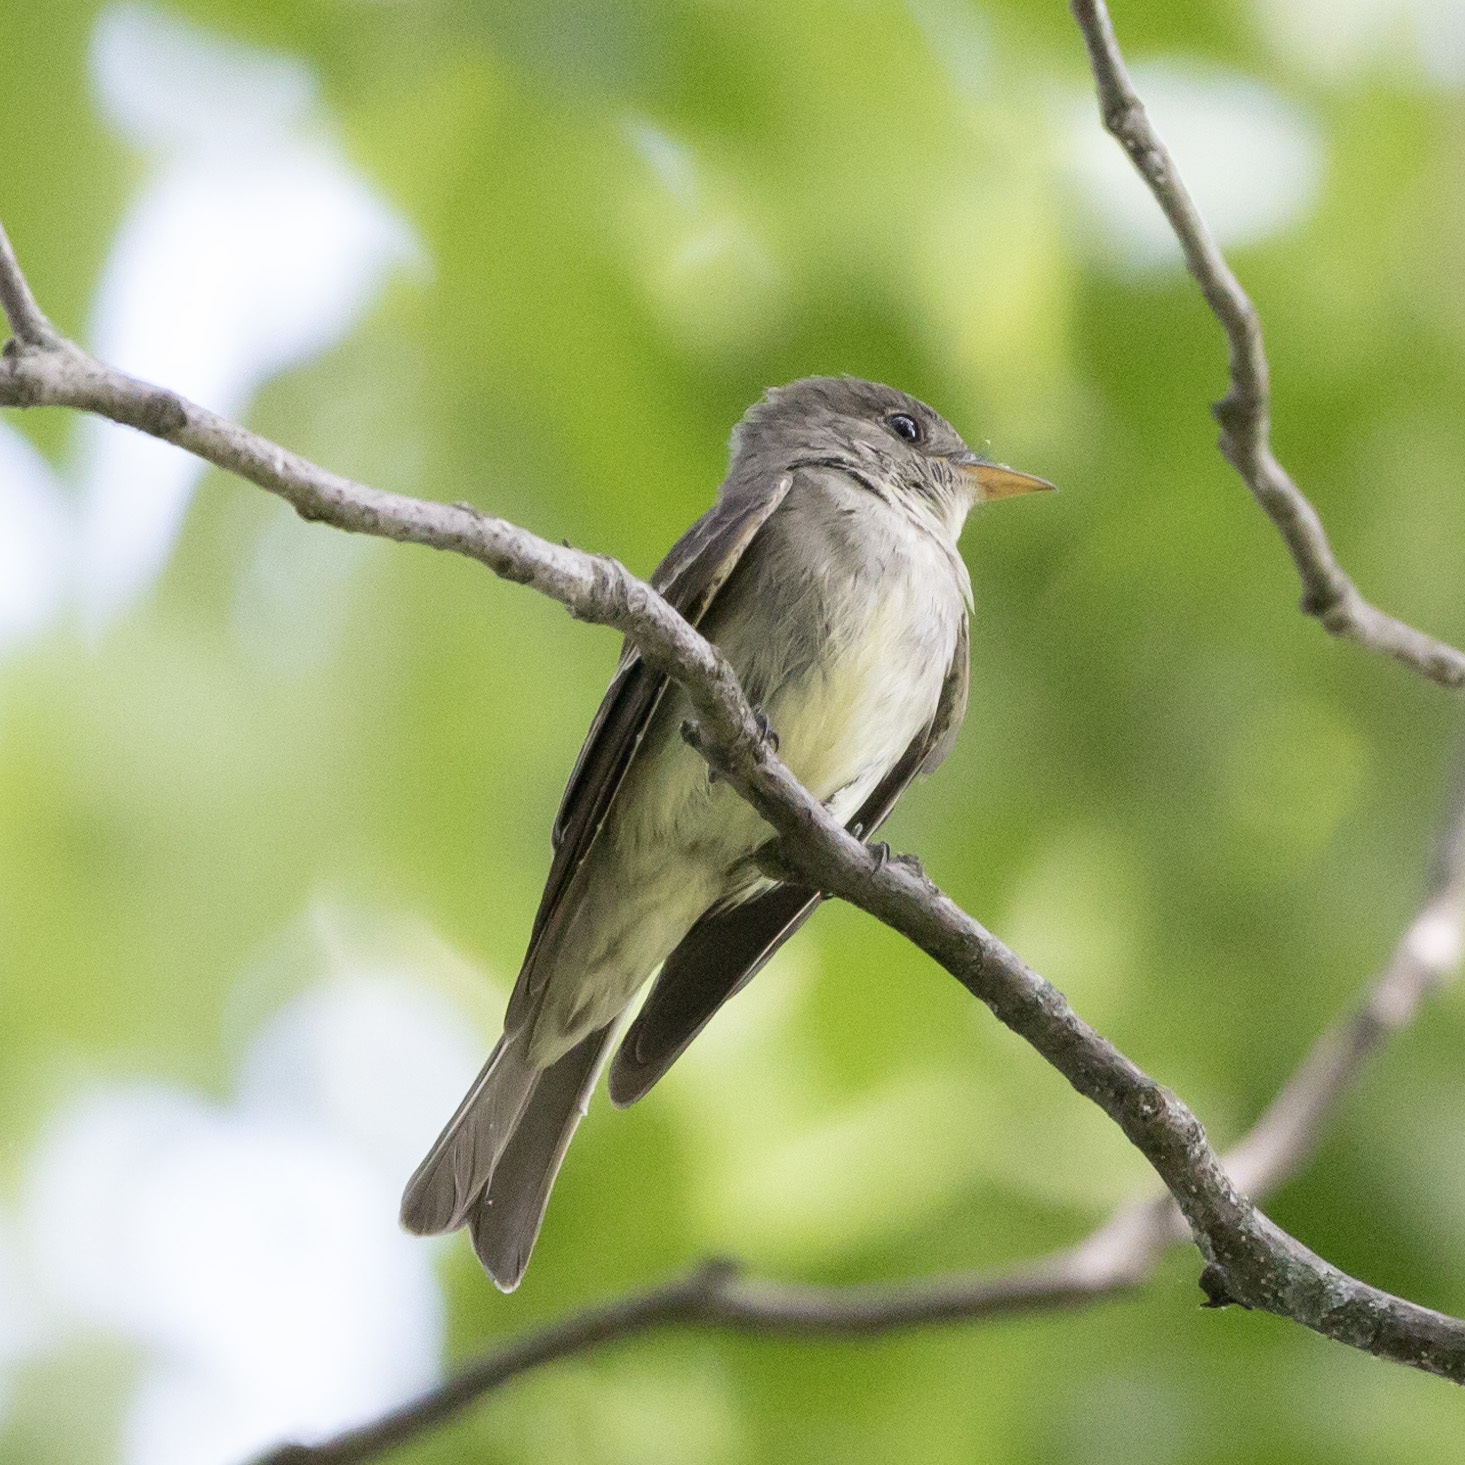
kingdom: Animalia
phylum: Chordata
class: Aves
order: Passeriformes
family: Tyrannidae
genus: Contopus
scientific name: Contopus virens
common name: Eastern wood-pewee
